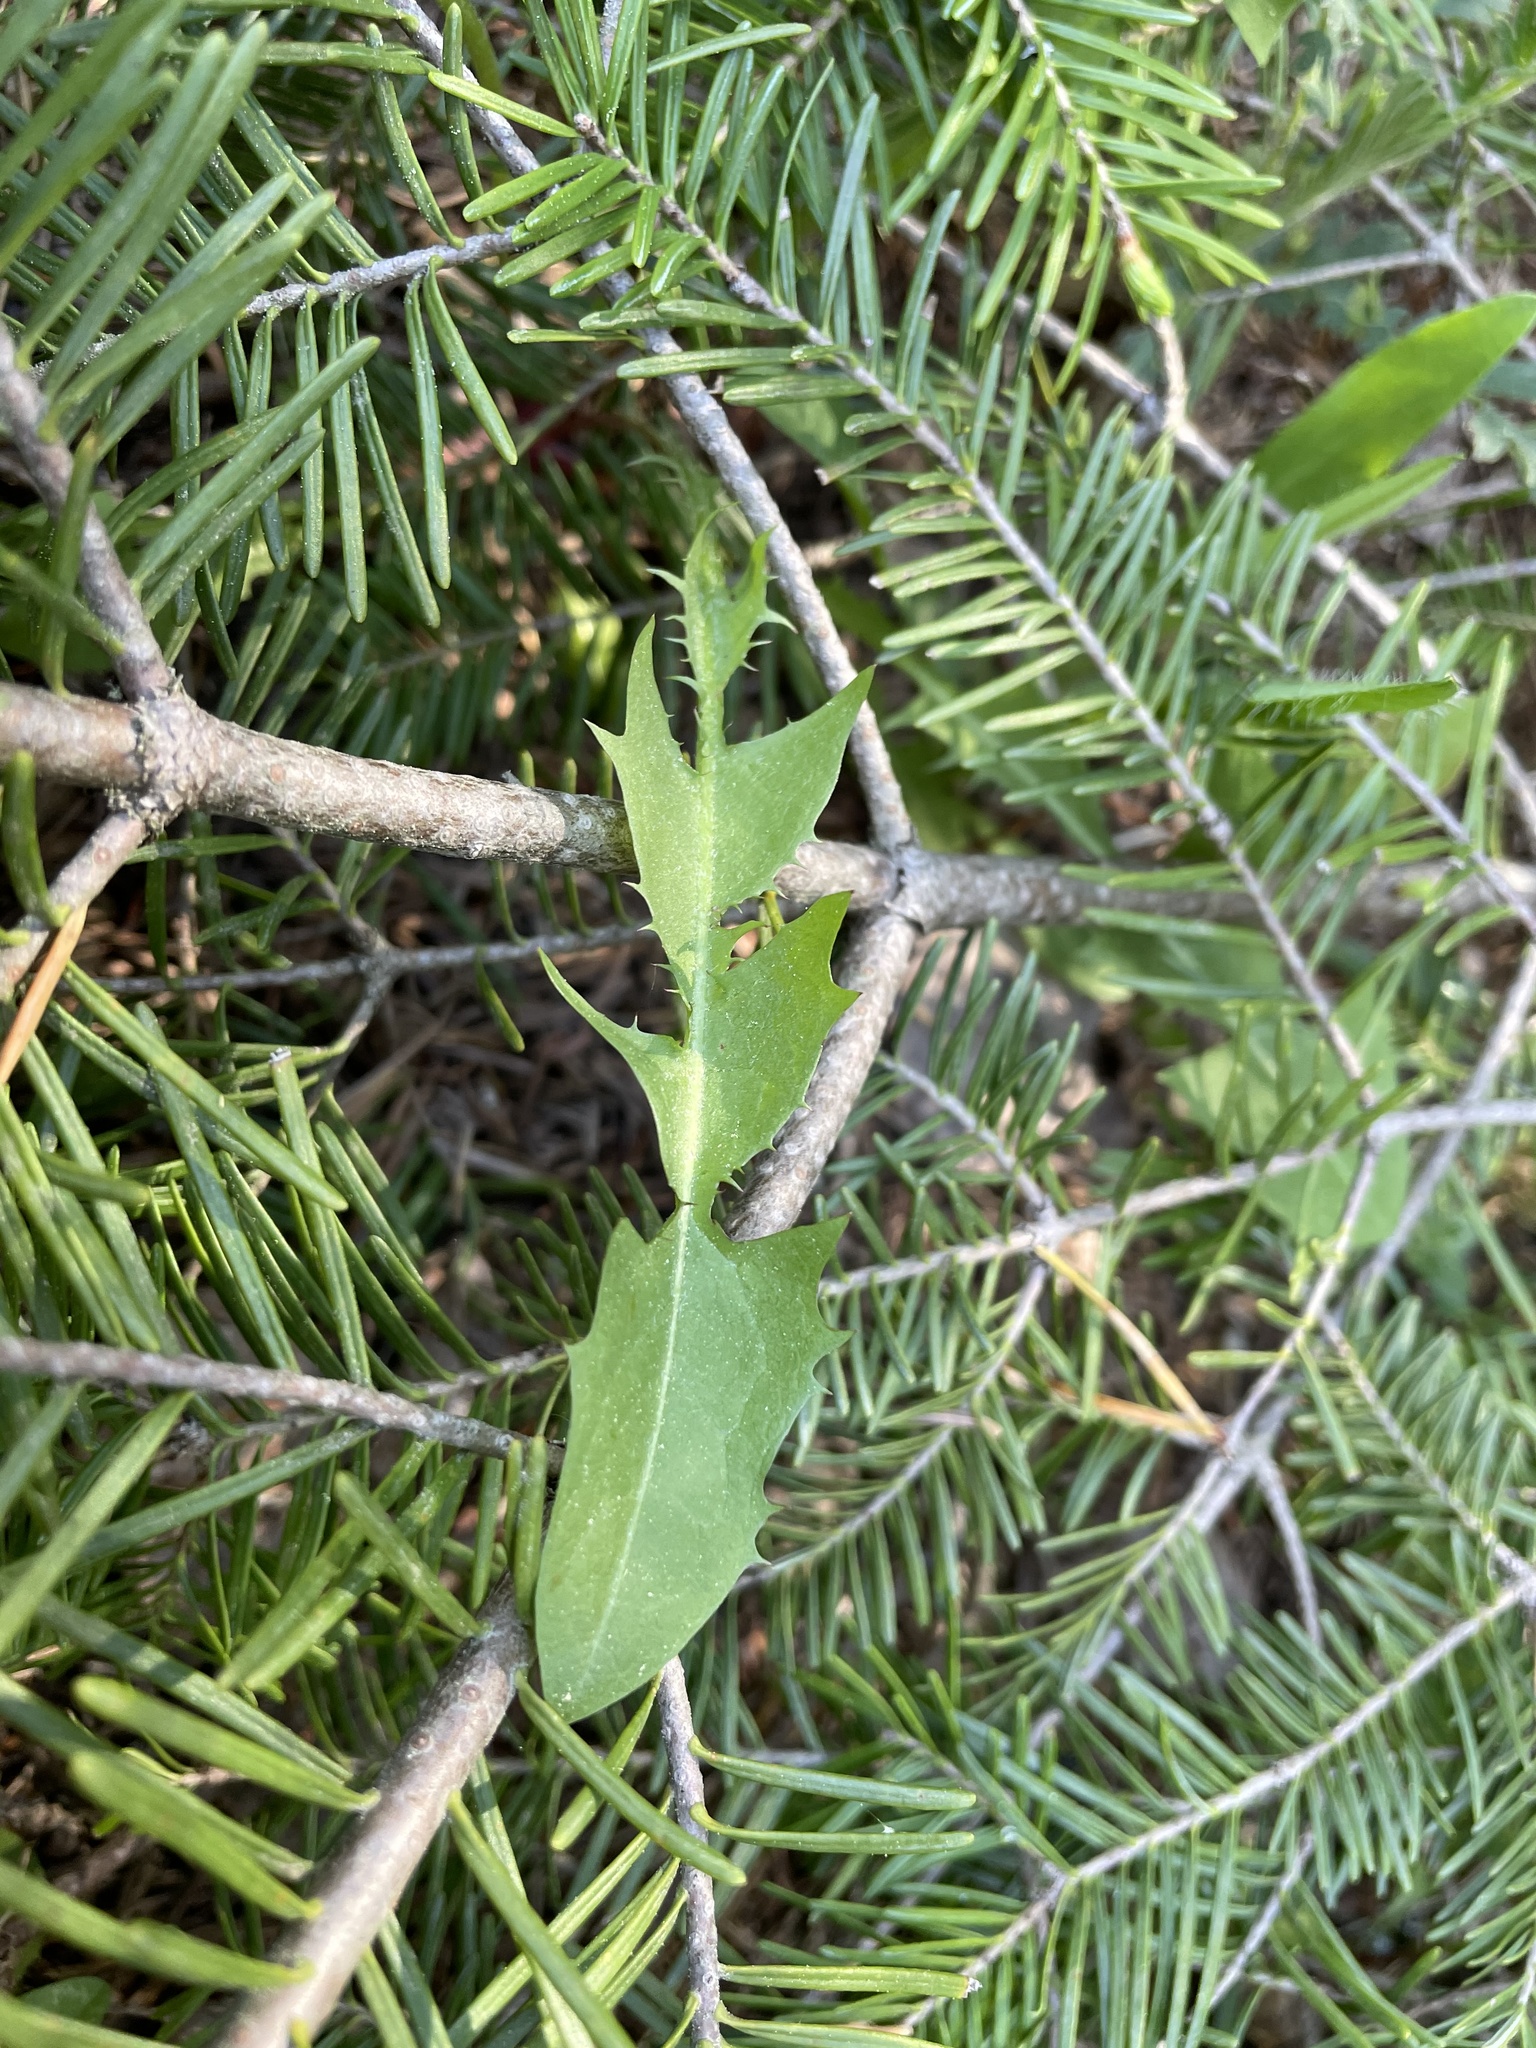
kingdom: Plantae
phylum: Tracheophyta
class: Magnoliopsida
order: Asterales
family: Asteraceae
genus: Taraxacum
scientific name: Taraxacum officinale
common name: Common dandelion
